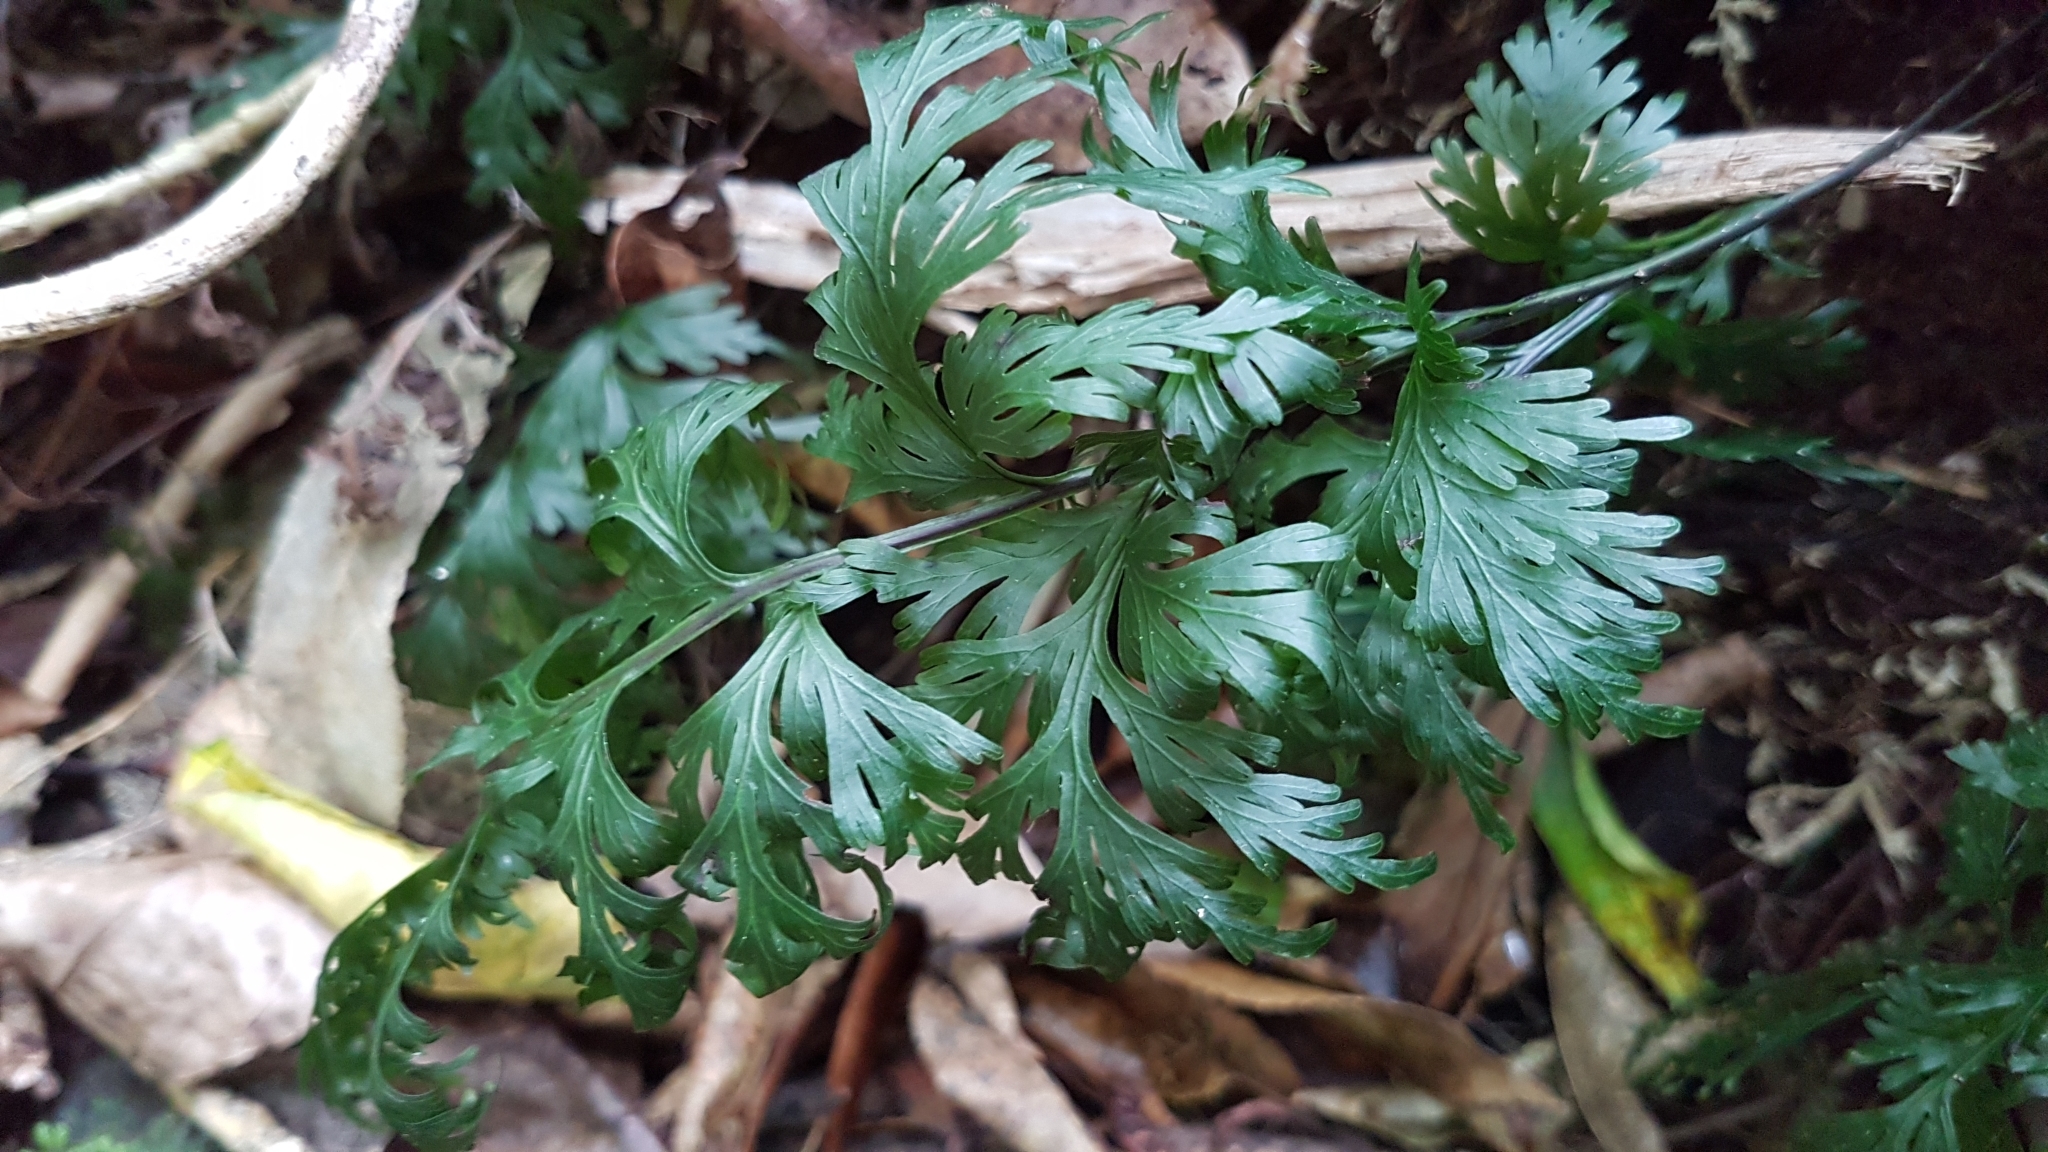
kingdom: Plantae
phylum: Tracheophyta
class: Polypodiopsida
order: Hymenophyllales
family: Hymenophyllaceae
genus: Hymenophyllum
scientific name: Hymenophyllum dilatatum
